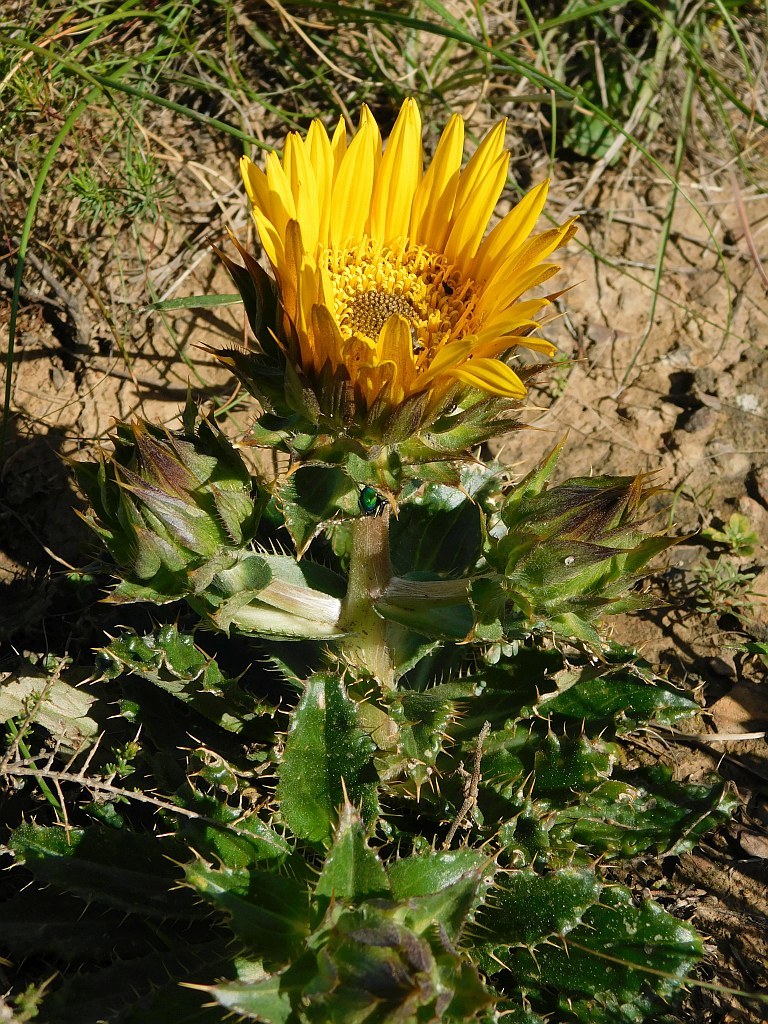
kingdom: Plantae
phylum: Tracheophyta
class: Magnoliopsida
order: Asterales
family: Asteraceae
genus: Berkheya
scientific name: Berkheya armata
